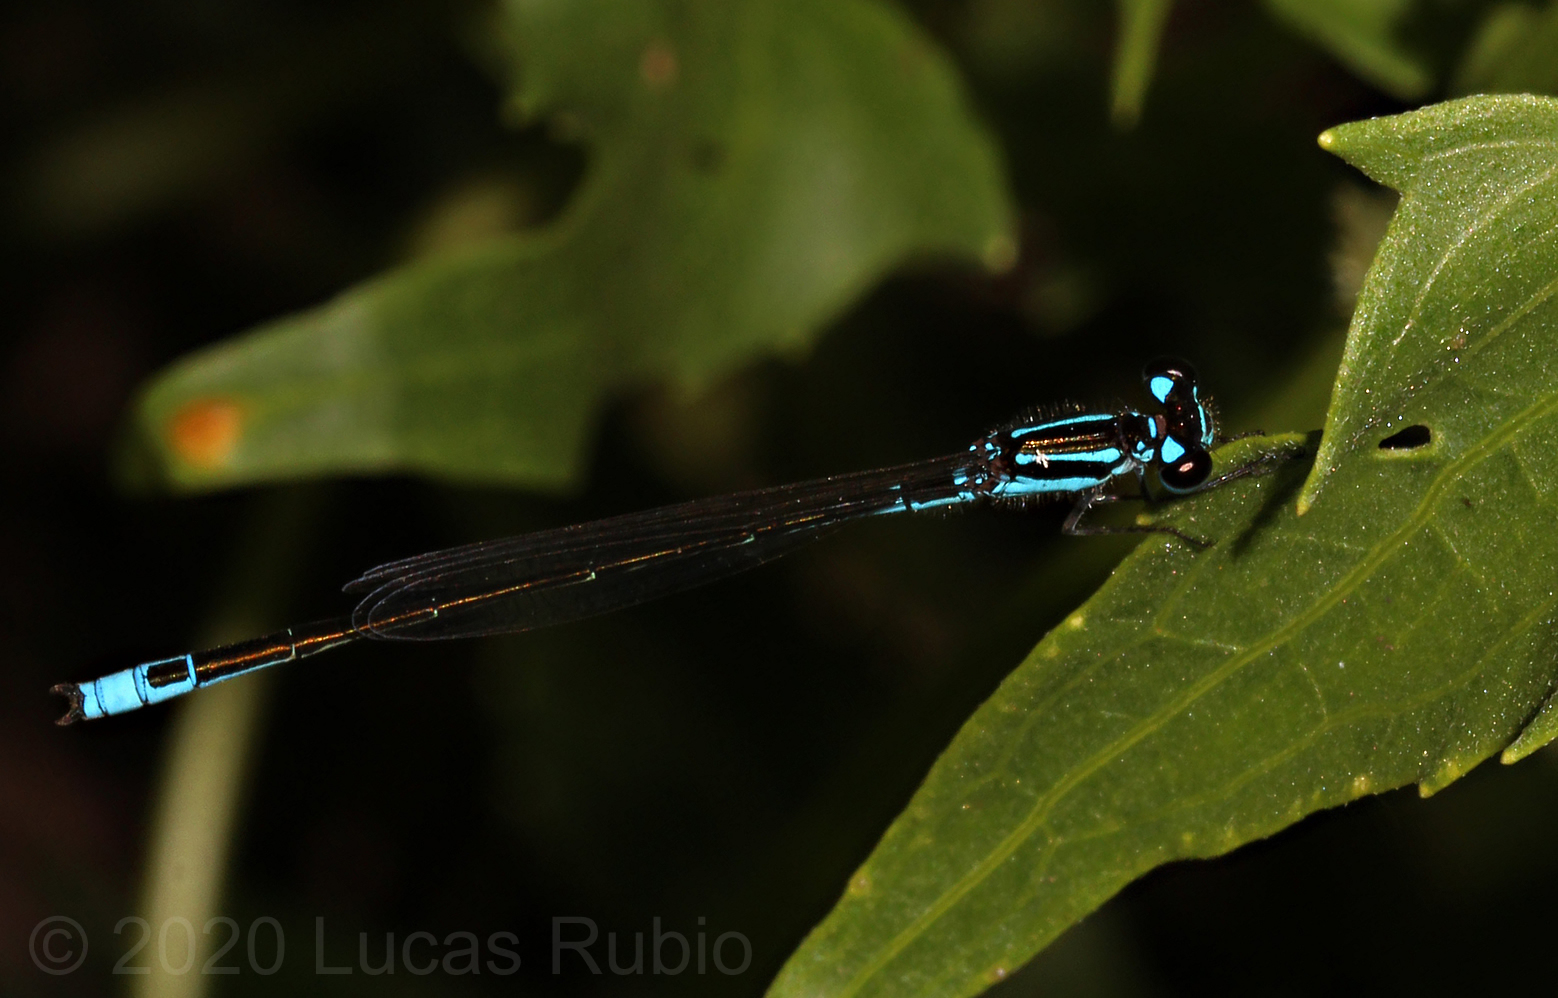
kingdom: Animalia
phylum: Arthropoda
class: Insecta
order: Odonata
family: Coenagrionidae
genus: Homeoura
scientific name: Homeoura chelifera
